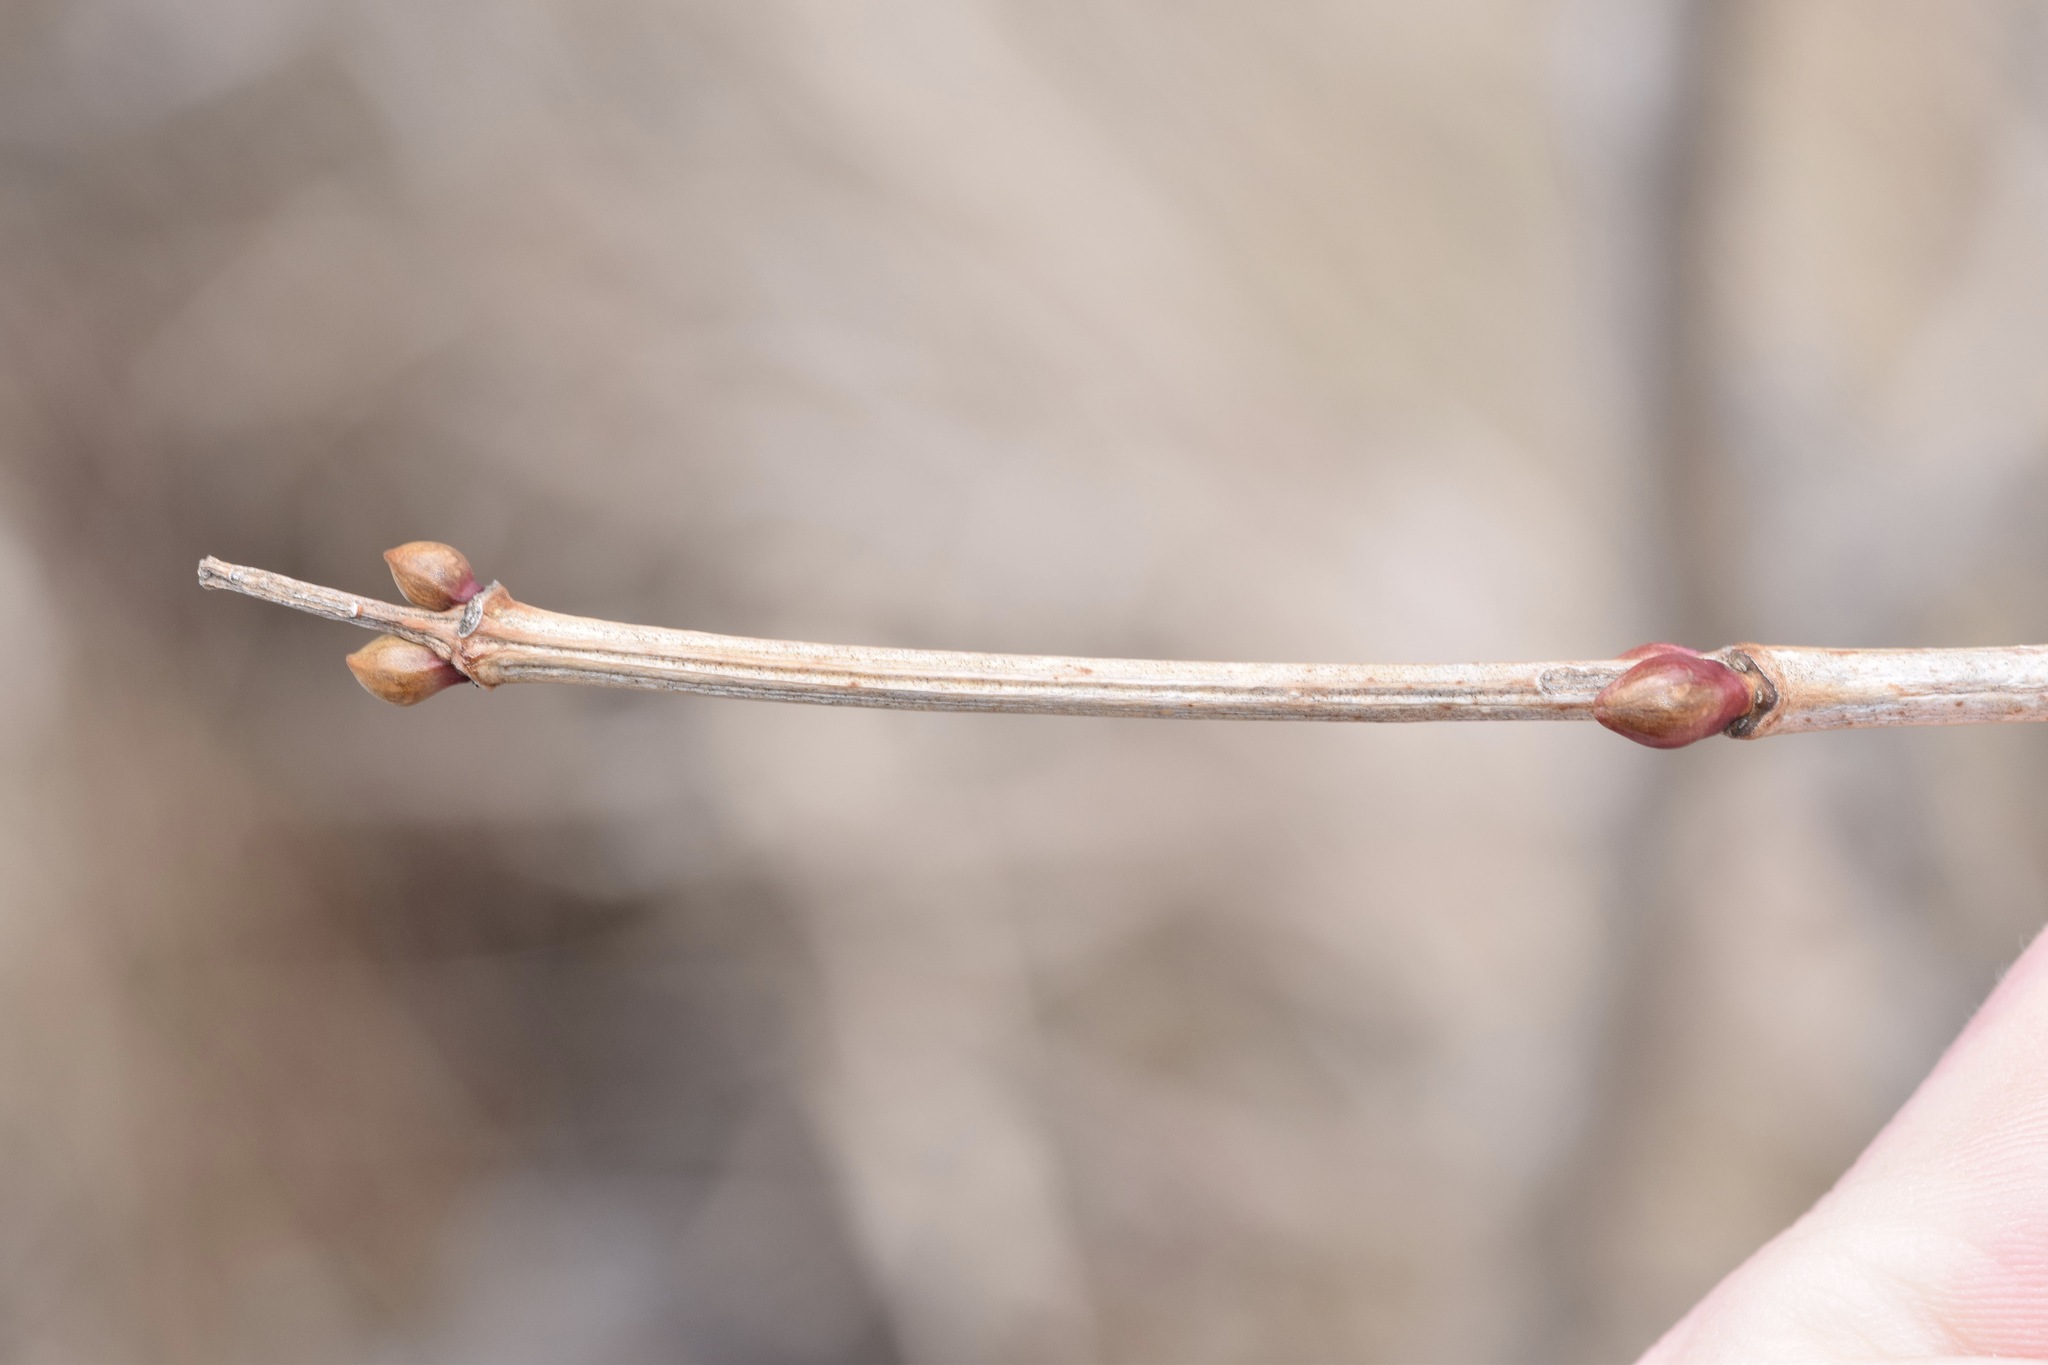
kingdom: Plantae
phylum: Tracheophyta
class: Magnoliopsida
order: Dipsacales
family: Viburnaceae
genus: Viburnum
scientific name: Viburnum opulus
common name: Guelder-rose
